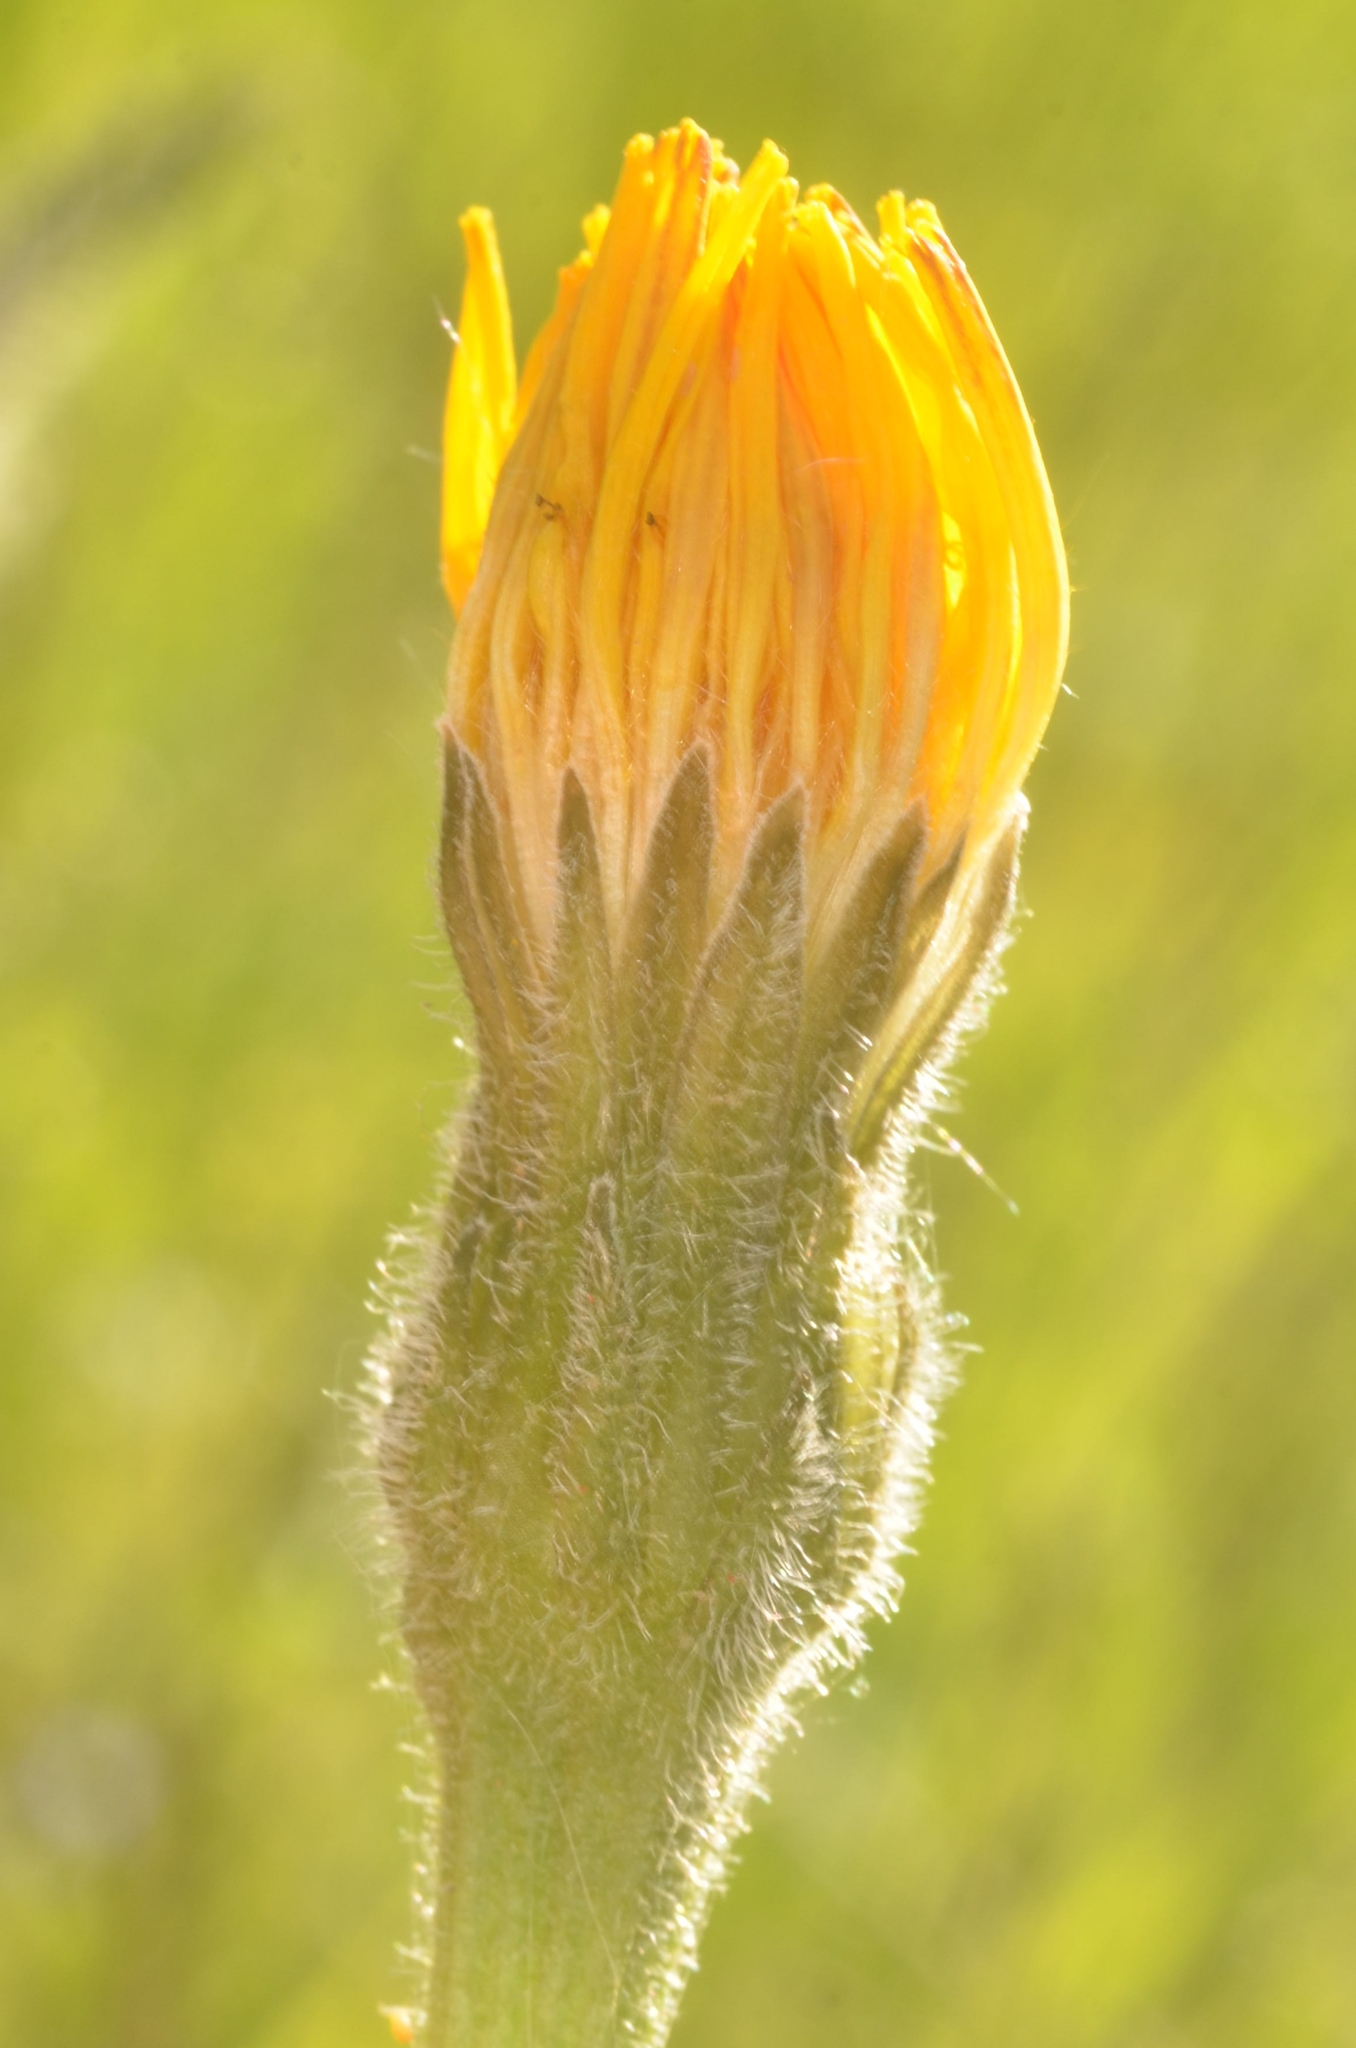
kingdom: Plantae
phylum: Tracheophyta
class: Magnoliopsida
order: Asterales
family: Asteraceae
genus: Leontodon
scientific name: Leontodon hispidus
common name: Rough hawkbit
